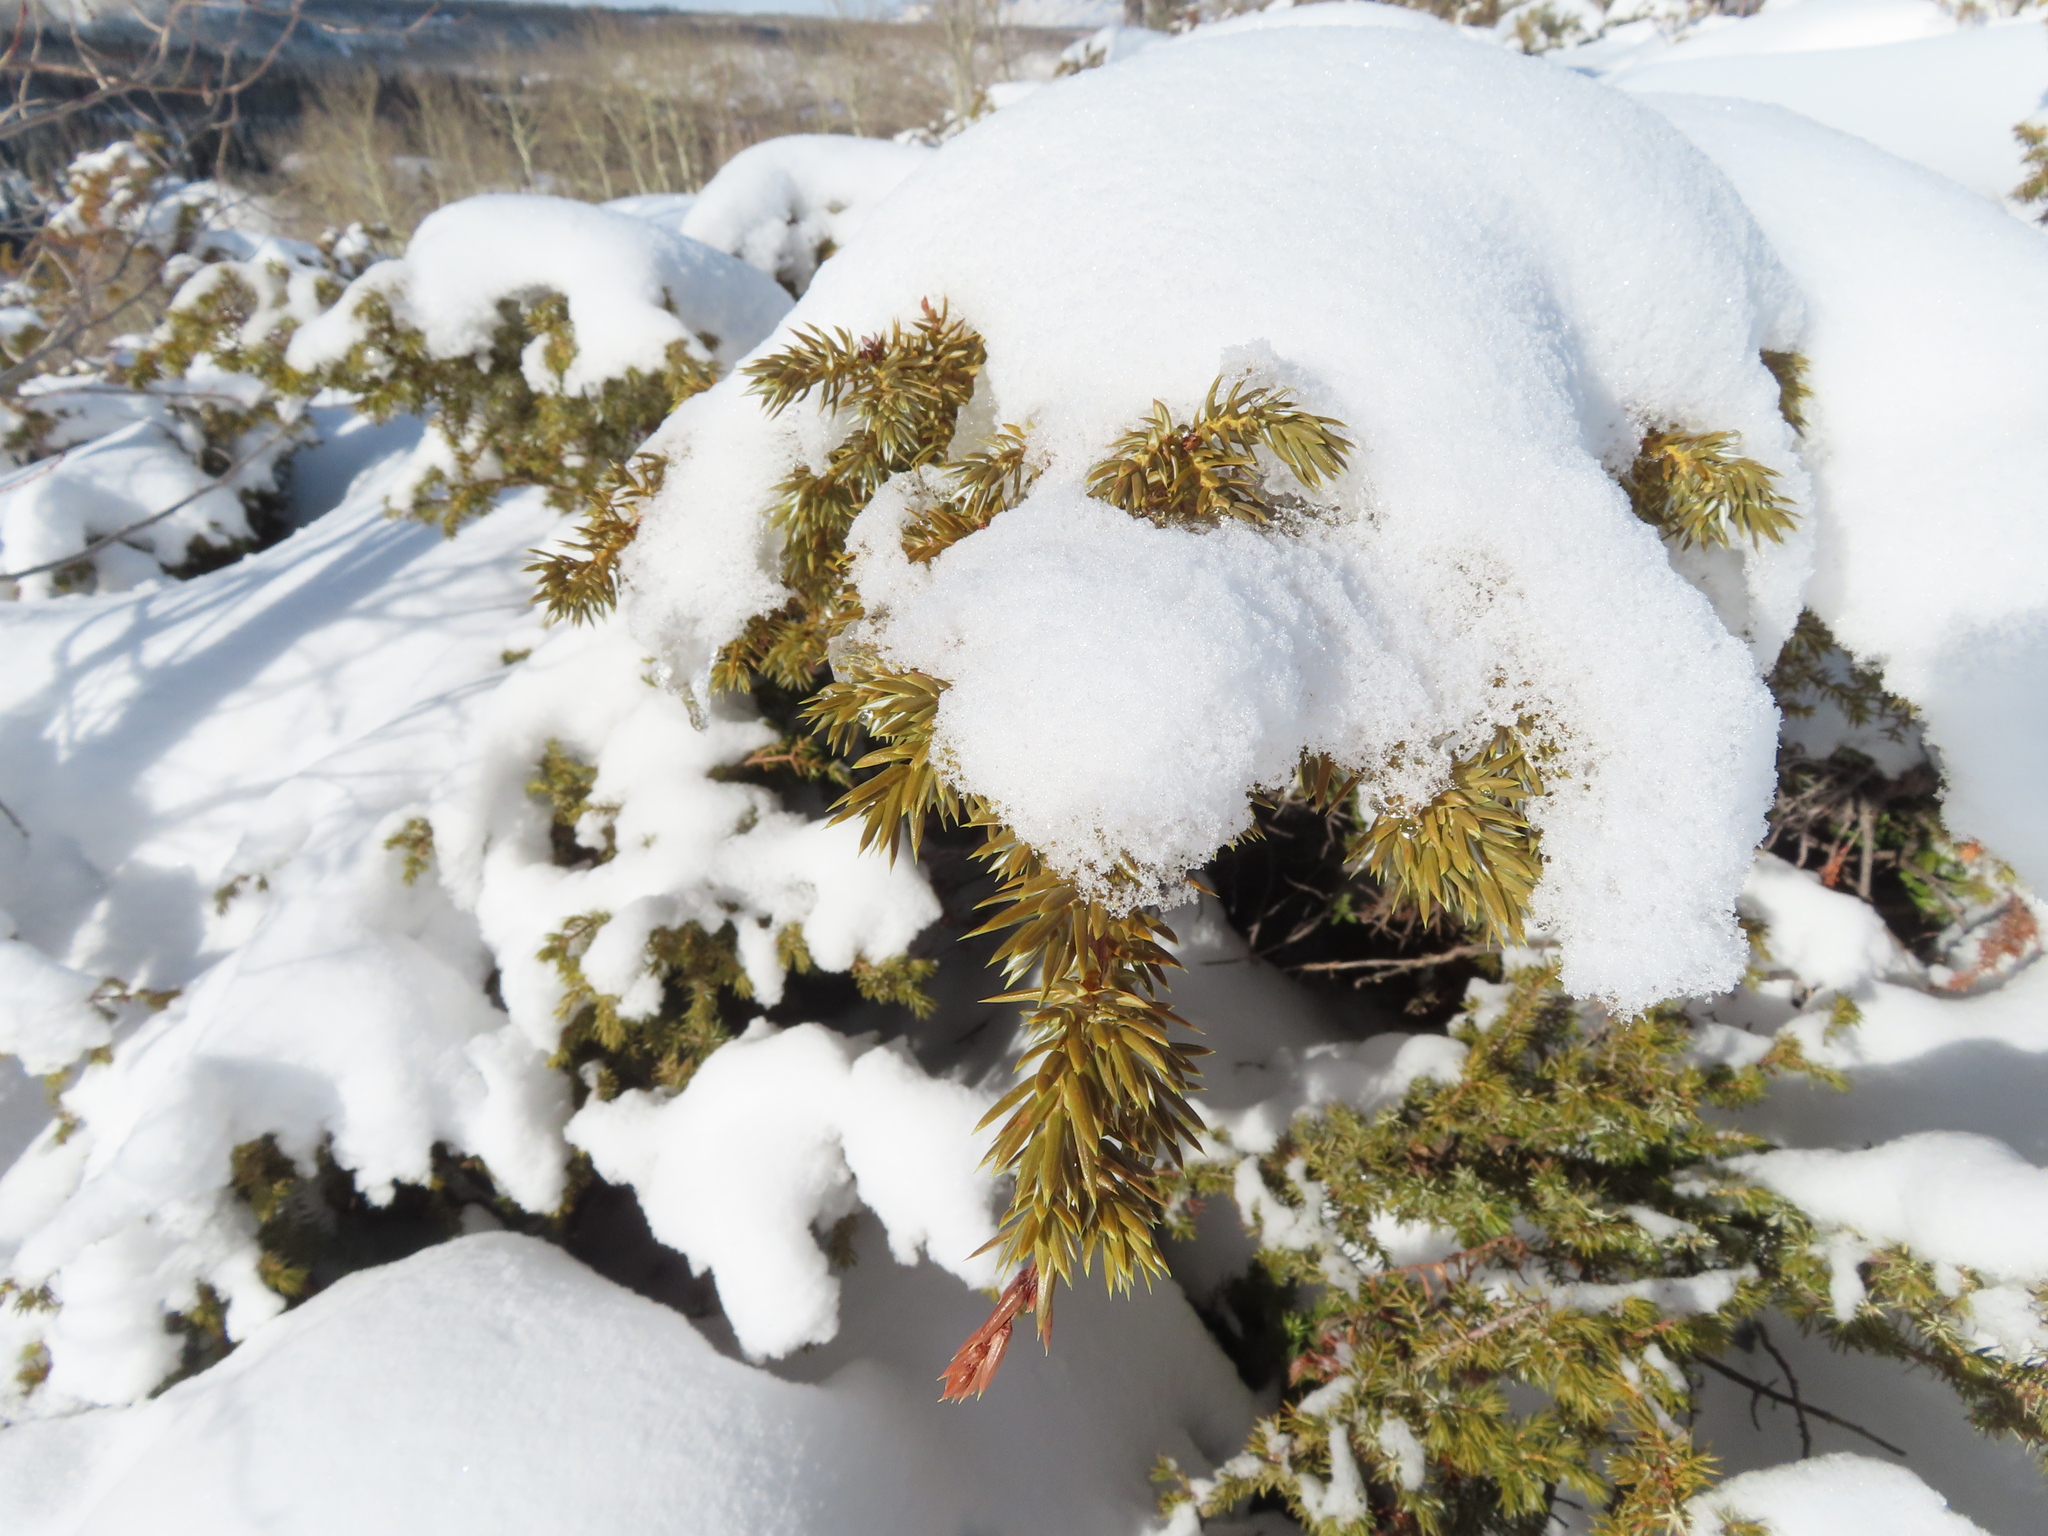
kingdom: Plantae
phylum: Tracheophyta
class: Pinopsida
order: Pinales
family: Cupressaceae
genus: Juniperus
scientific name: Juniperus communis
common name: Common juniper
